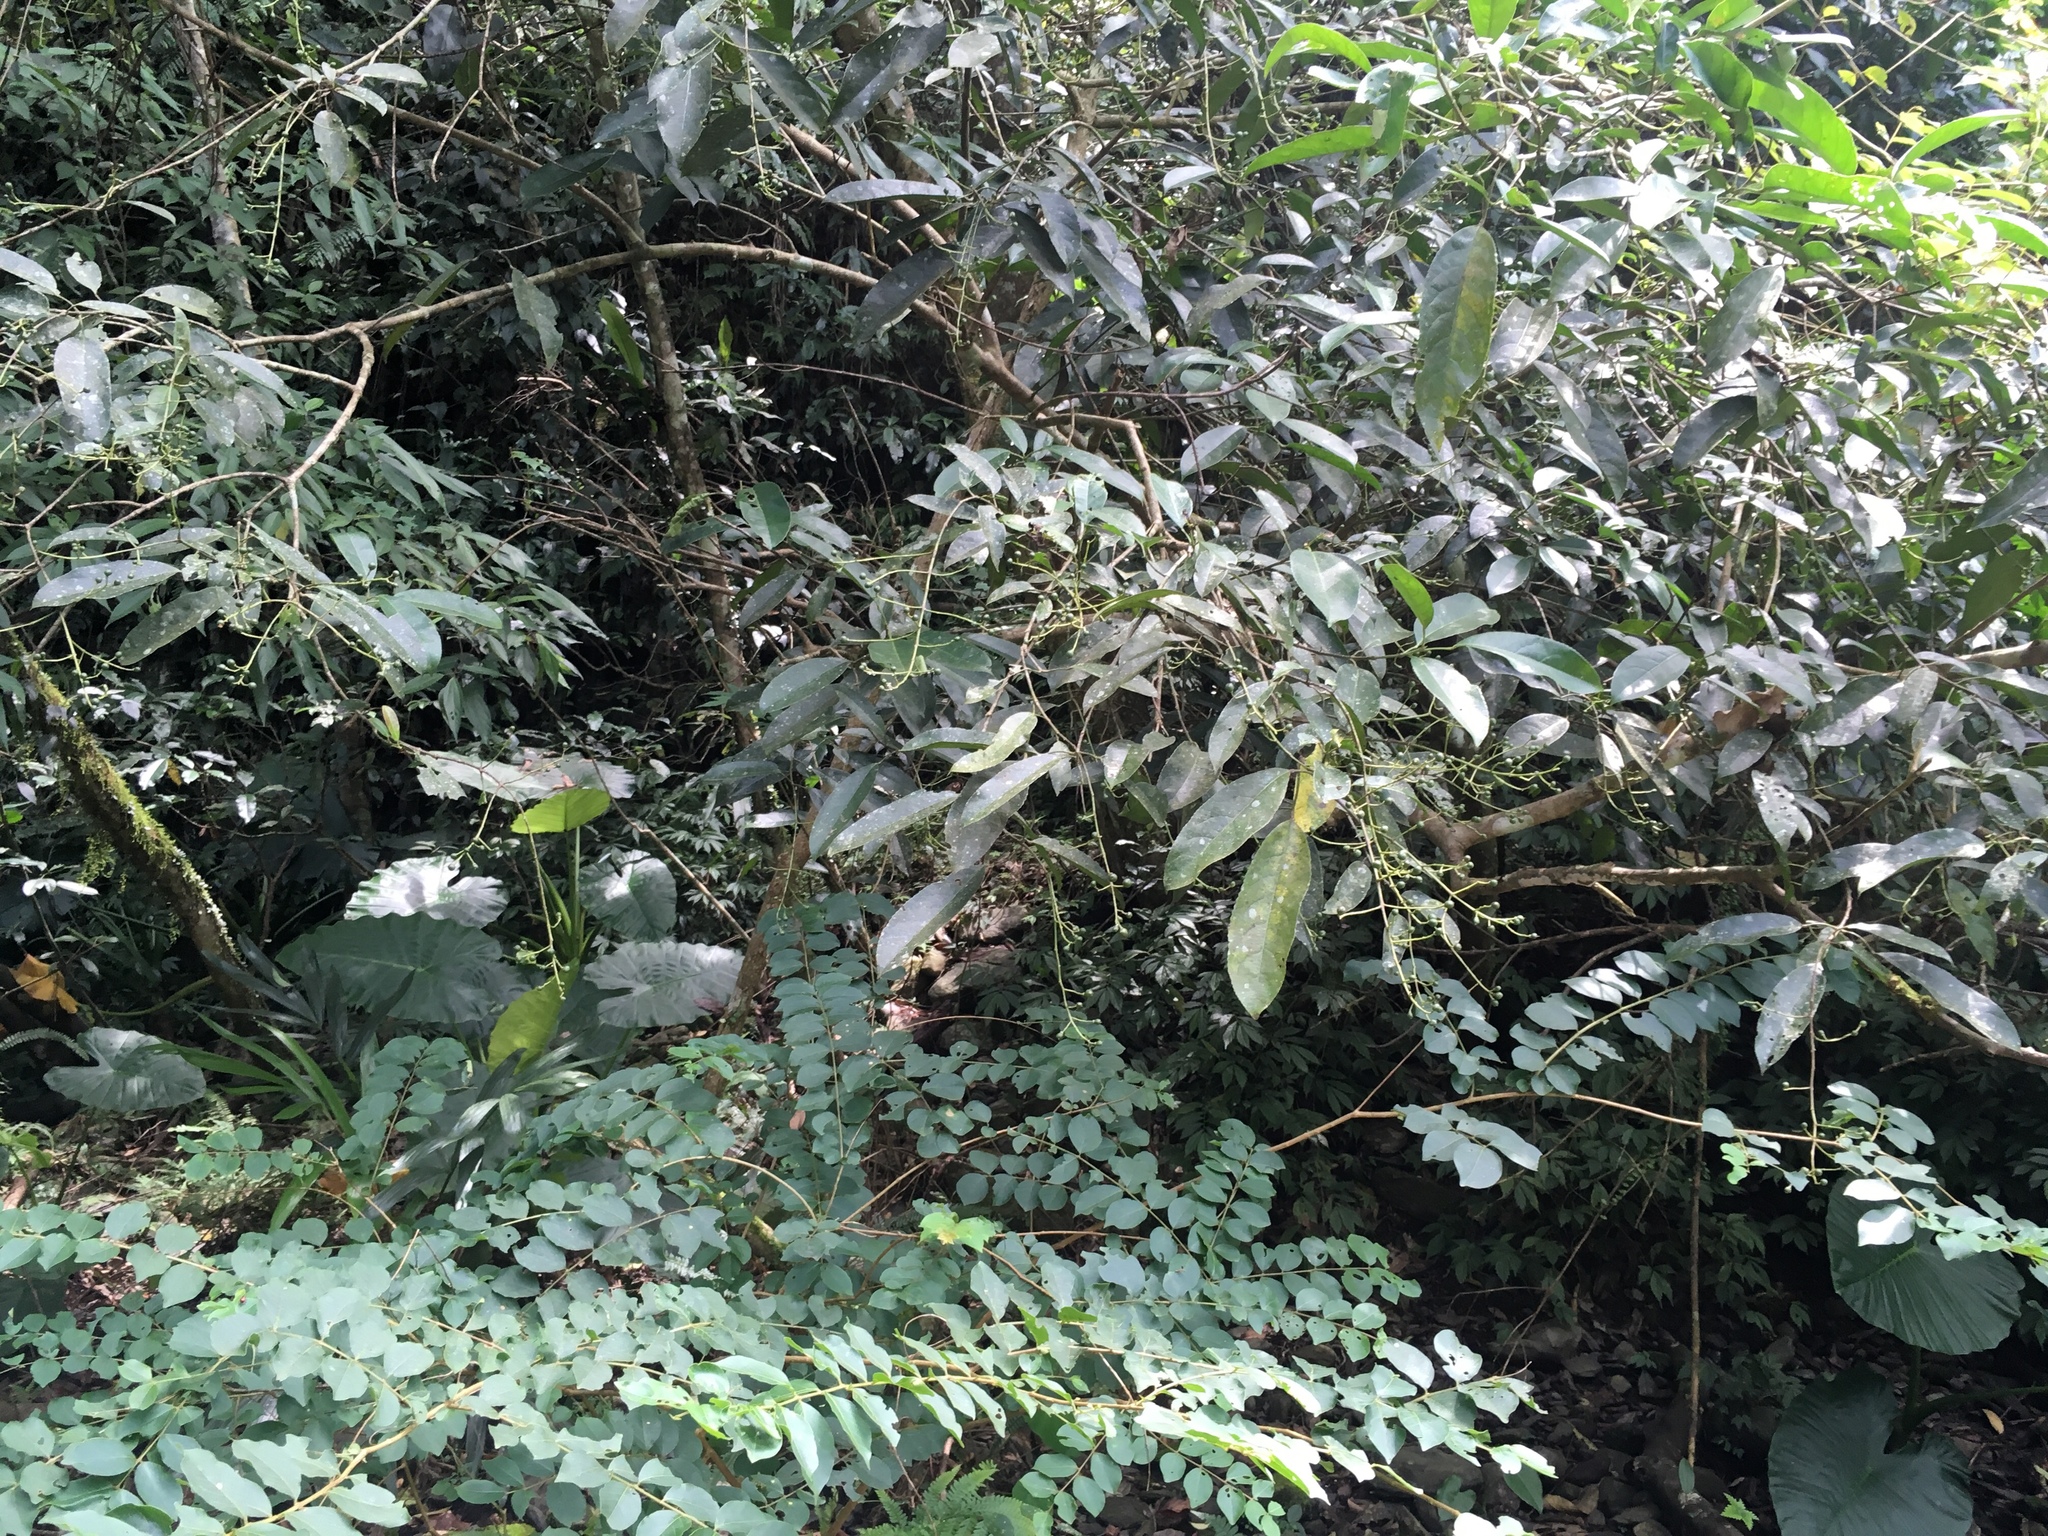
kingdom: Plantae
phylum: Tracheophyta
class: Magnoliopsida
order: Crossosomatales
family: Staphyleaceae
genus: Turpinia
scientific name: Turpinia formosana
